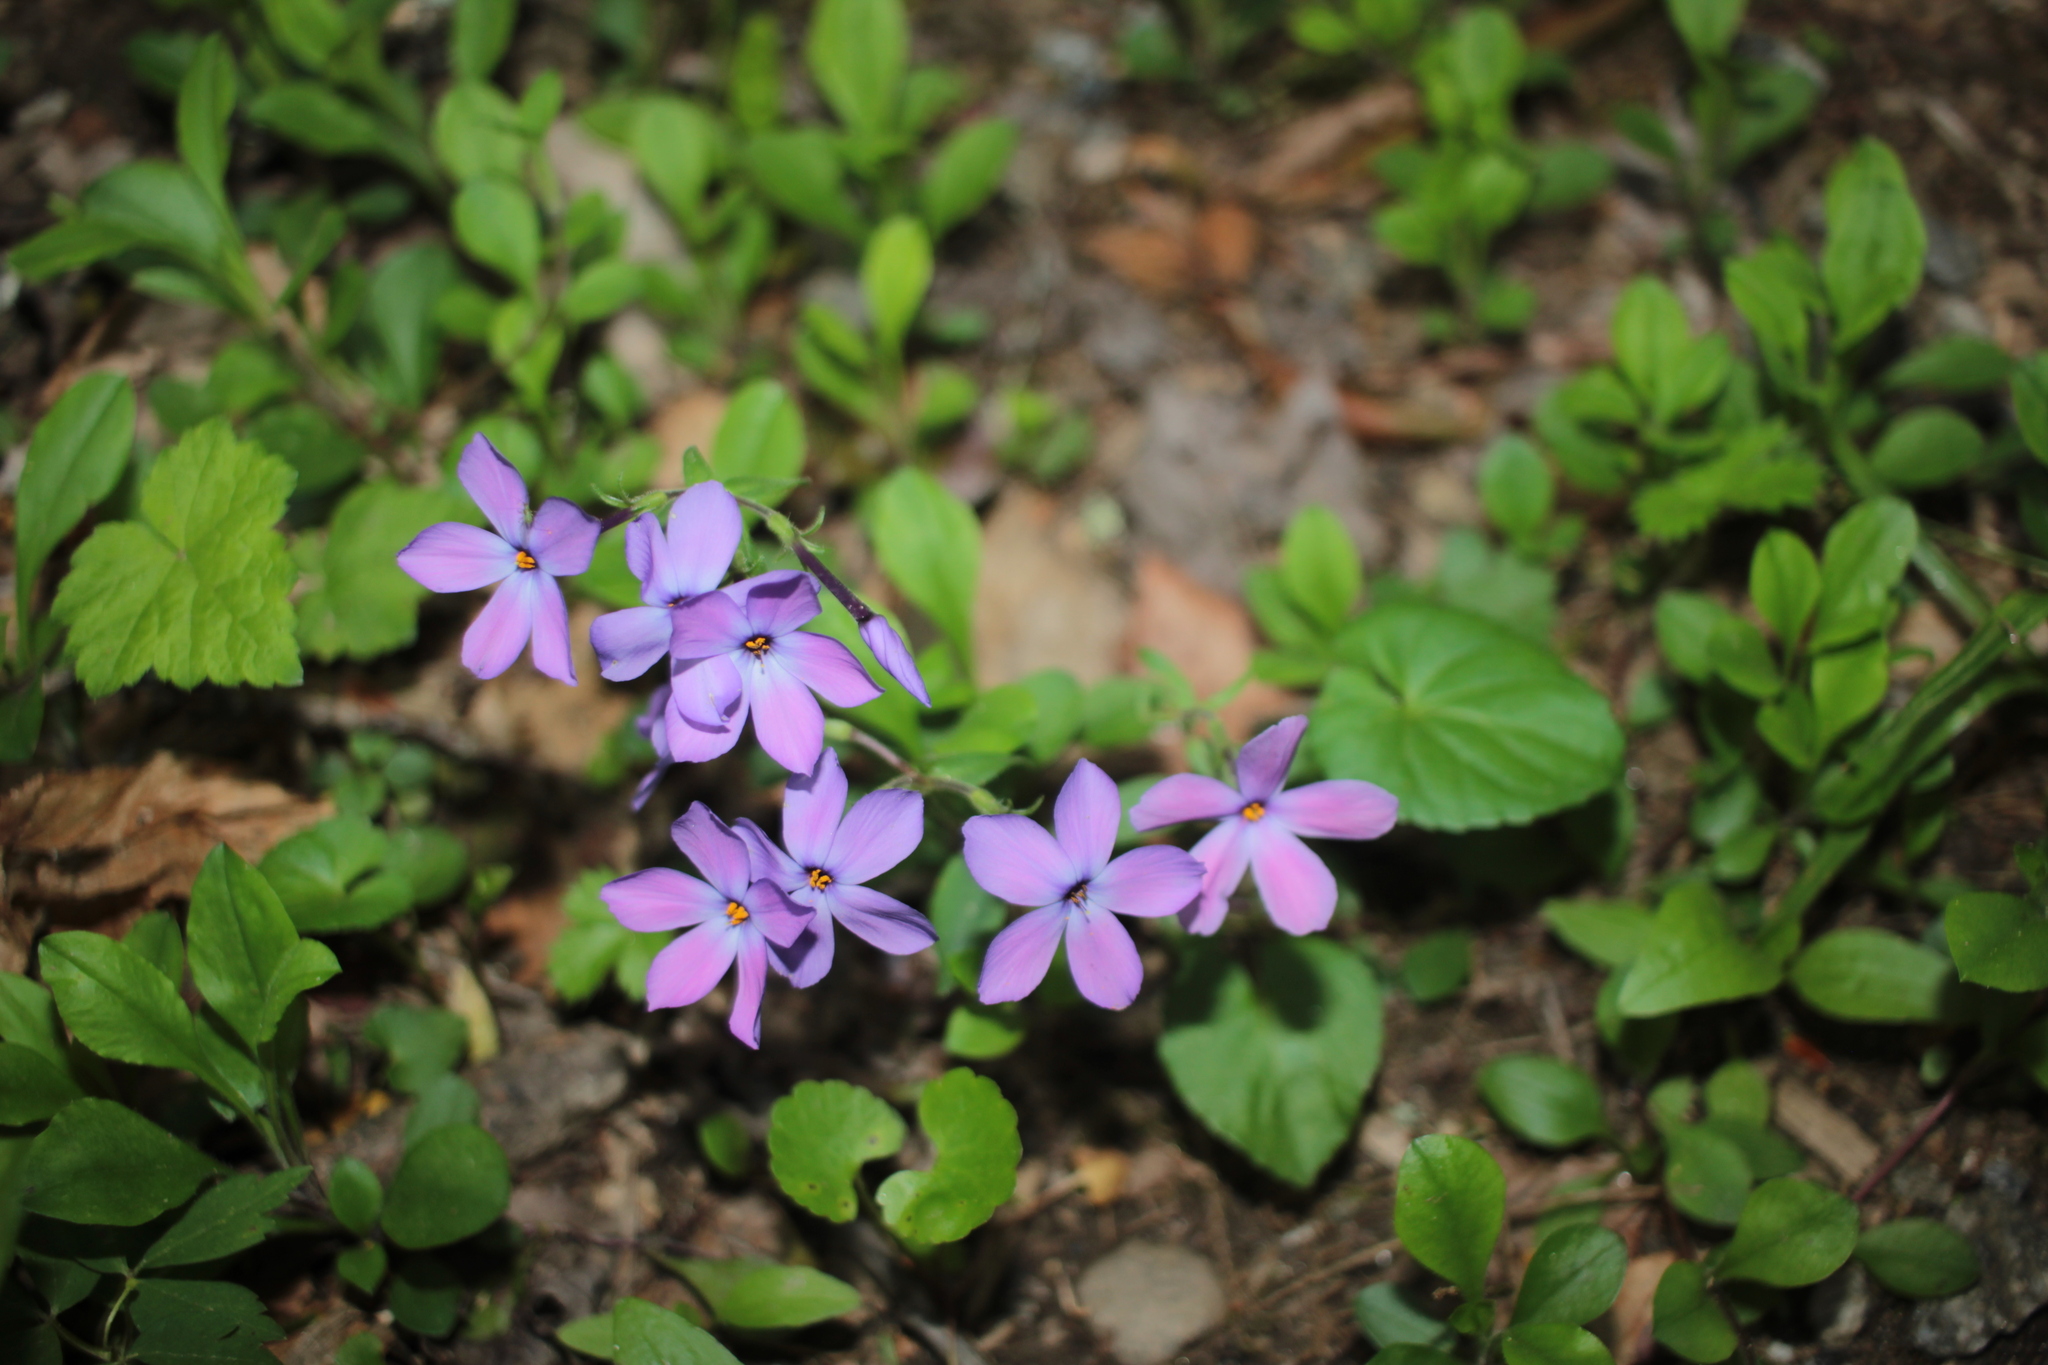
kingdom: Plantae
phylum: Tracheophyta
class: Magnoliopsida
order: Ericales
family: Polemoniaceae
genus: Phlox
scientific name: Phlox stolonifera
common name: Creeping phlox
